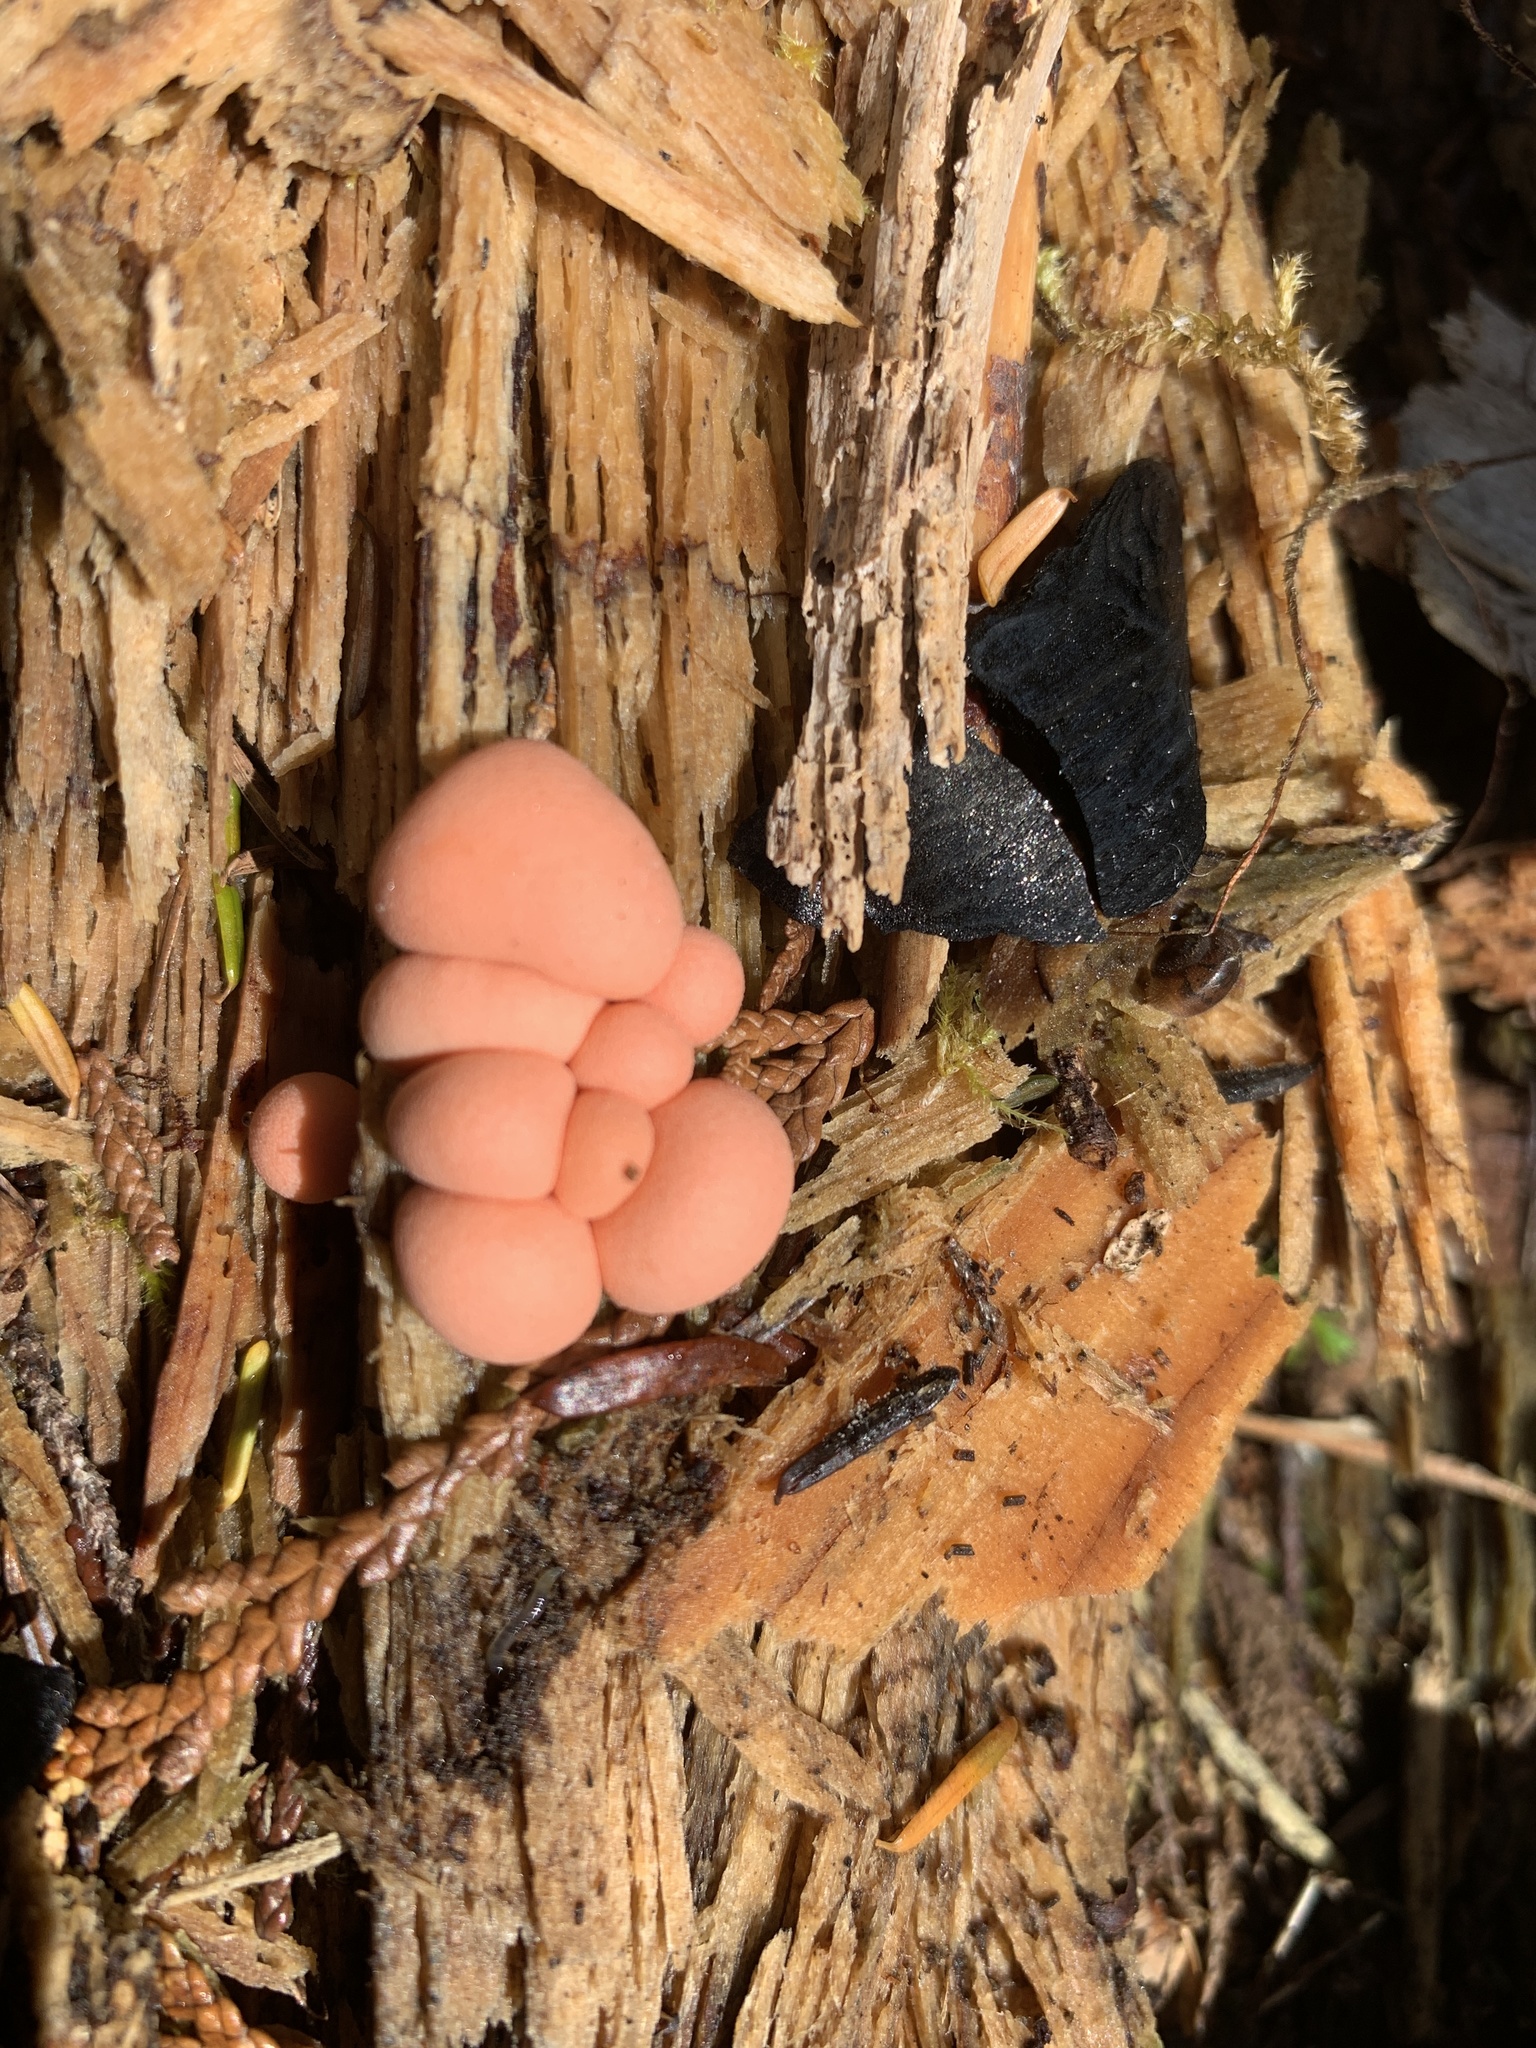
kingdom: Protozoa
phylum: Mycetozoa
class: Myxomycetes
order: Cribrariales
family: Tubiferaceae
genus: Lycogala
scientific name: Lycogala epidendrum
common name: Wolf's milk
